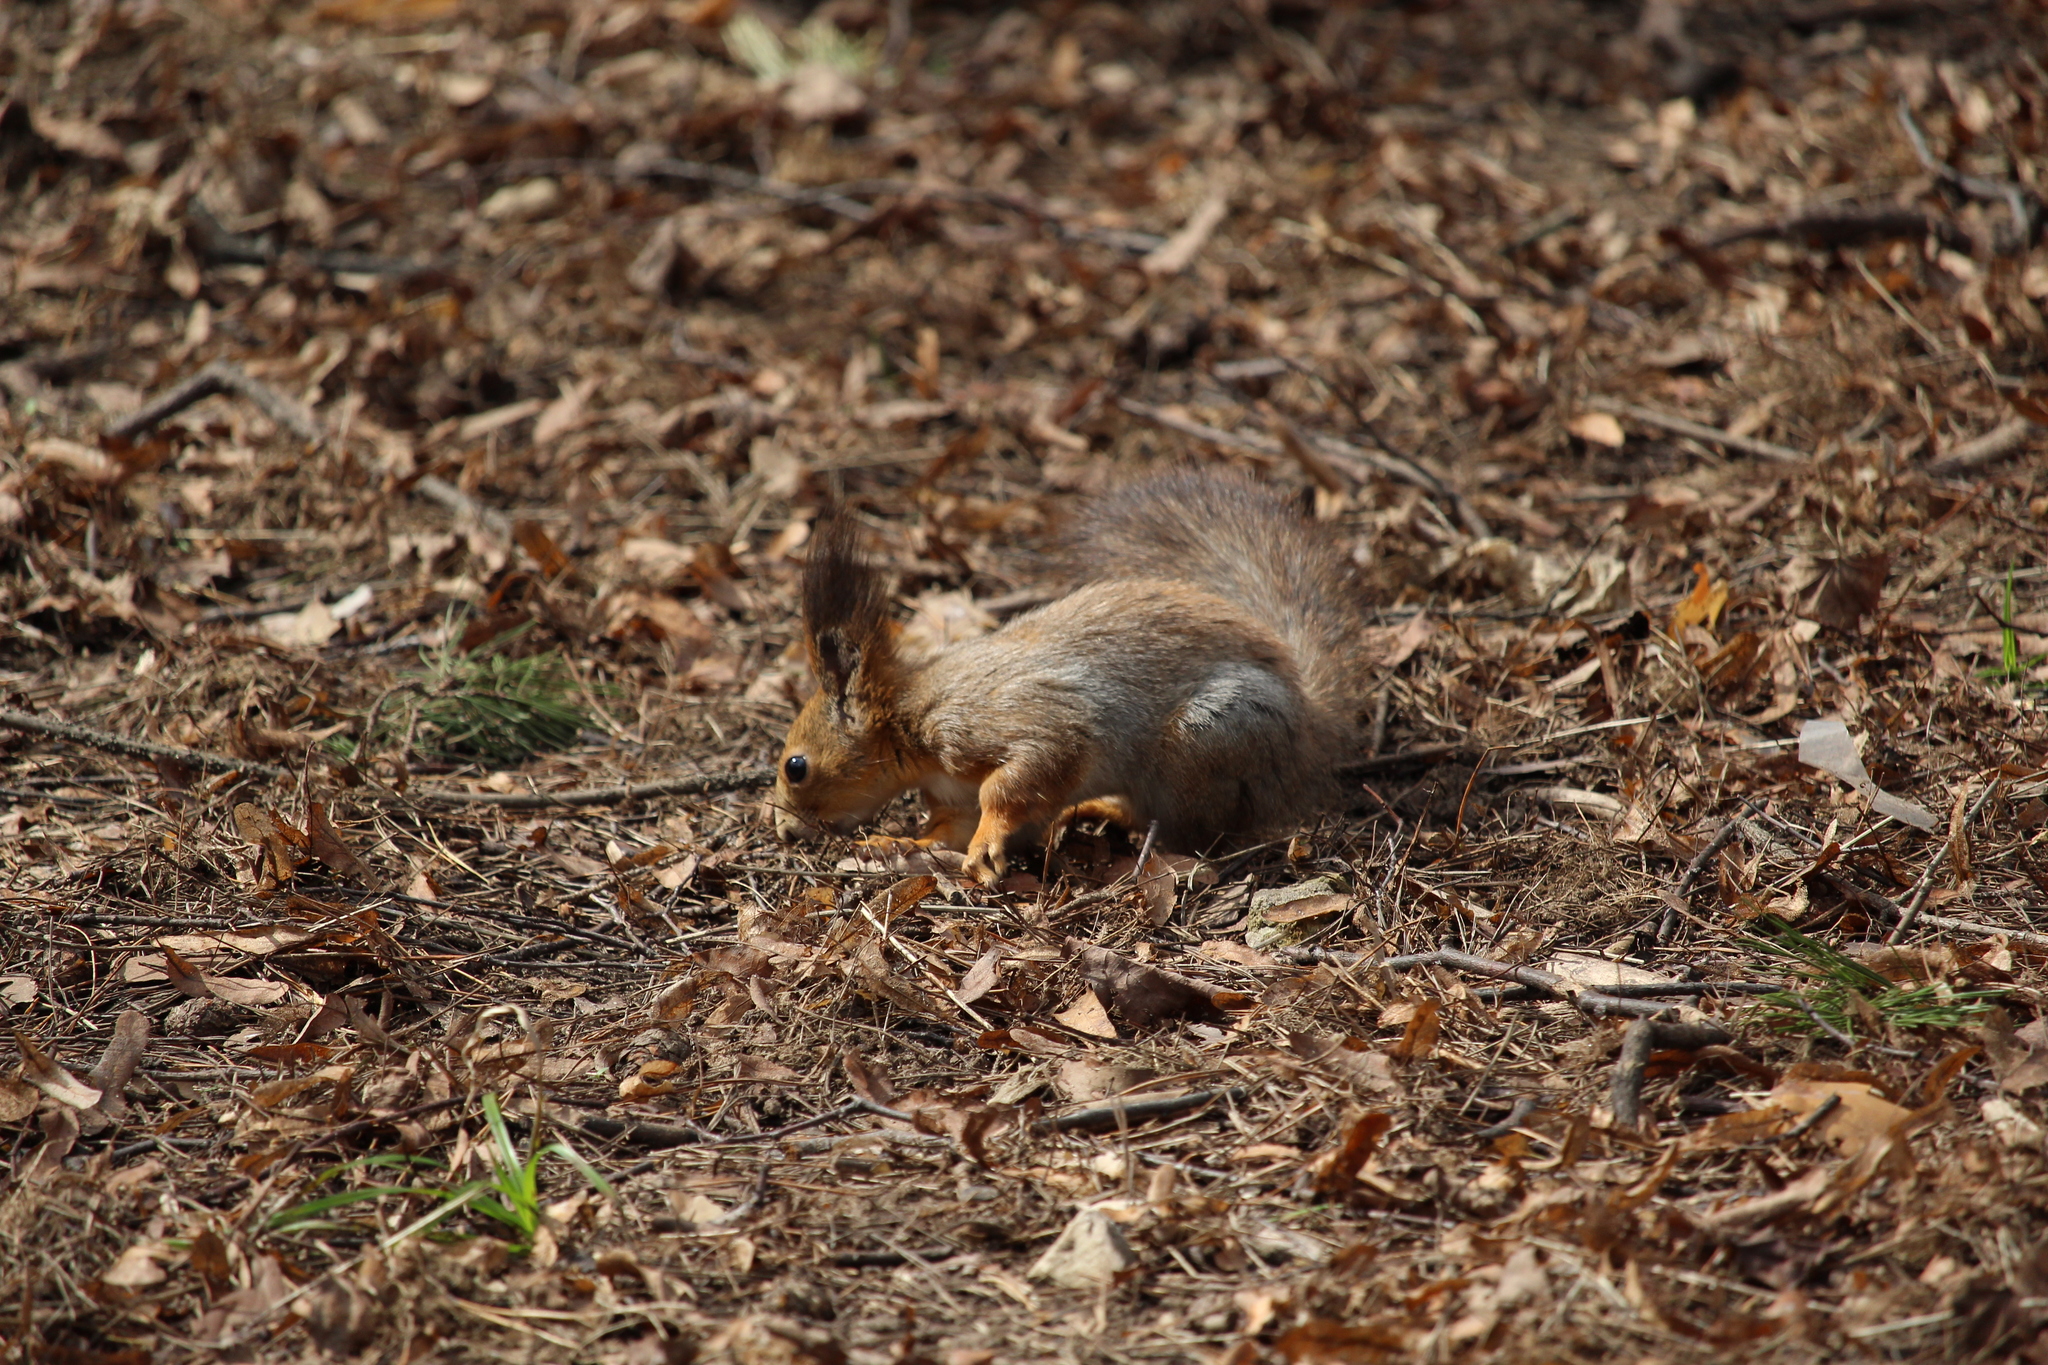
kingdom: Animalia
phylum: Chordata
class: Mammalia
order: Rodentia
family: Sciuridae
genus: Sciurus
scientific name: Sciurus vulgaris
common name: Eurasian red squirrel
